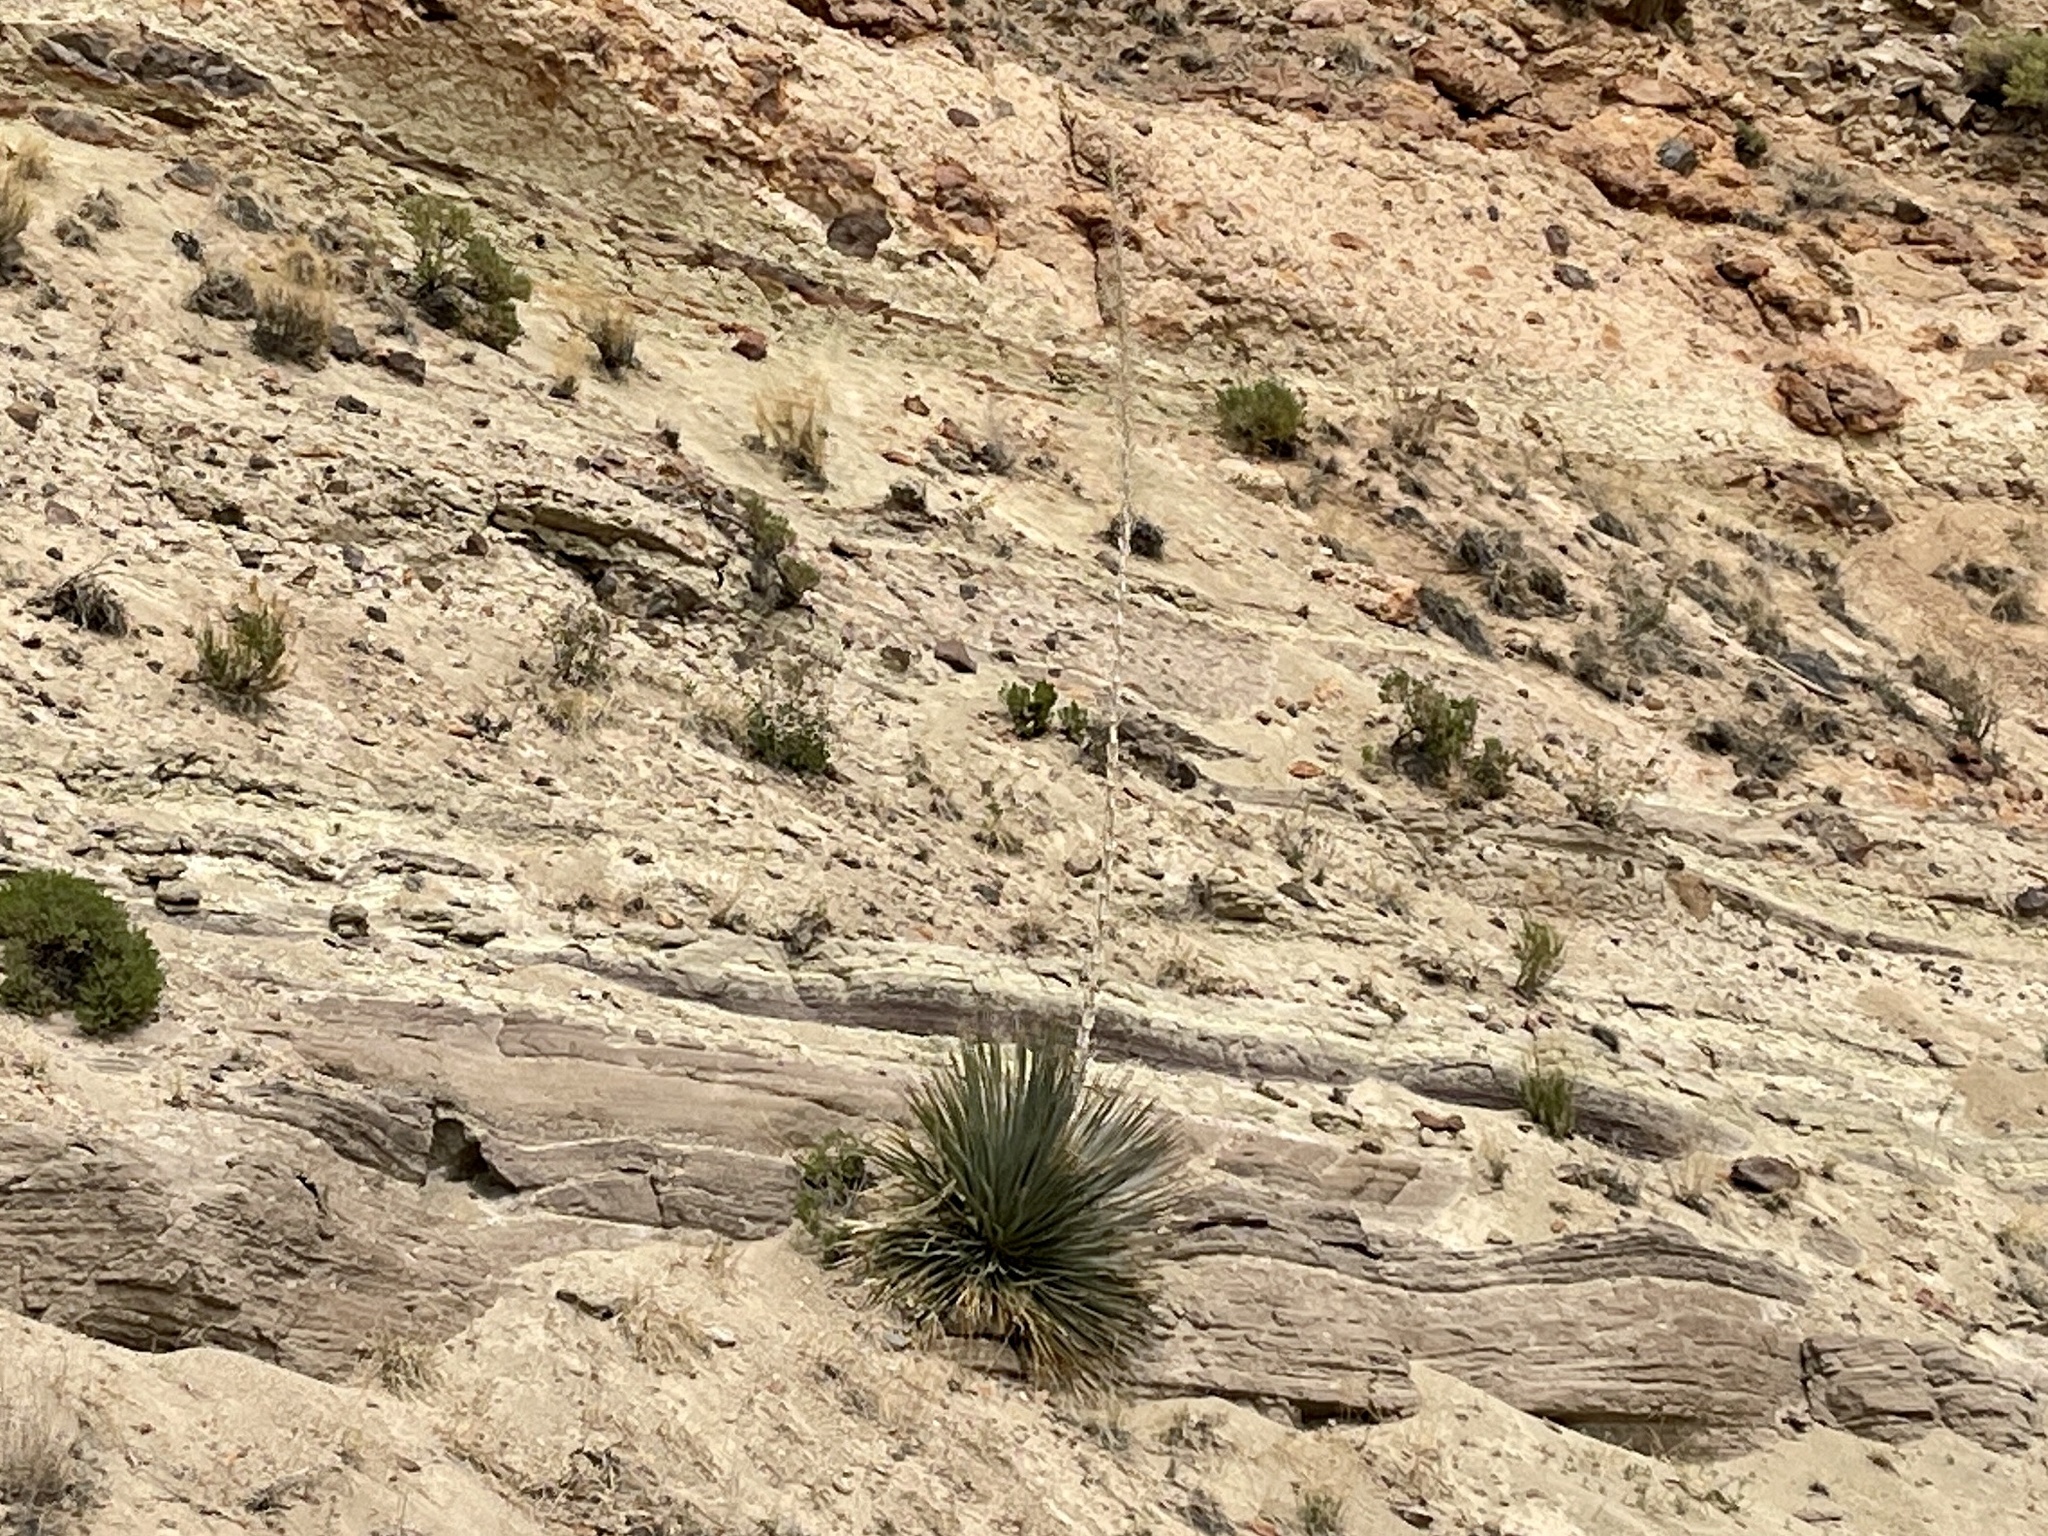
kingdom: Plantae
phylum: Tracheophyta
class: Liliopsida
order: Asparagales
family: Asparagaceae
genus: Dasylirion
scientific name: Dasylirion wheeleri
